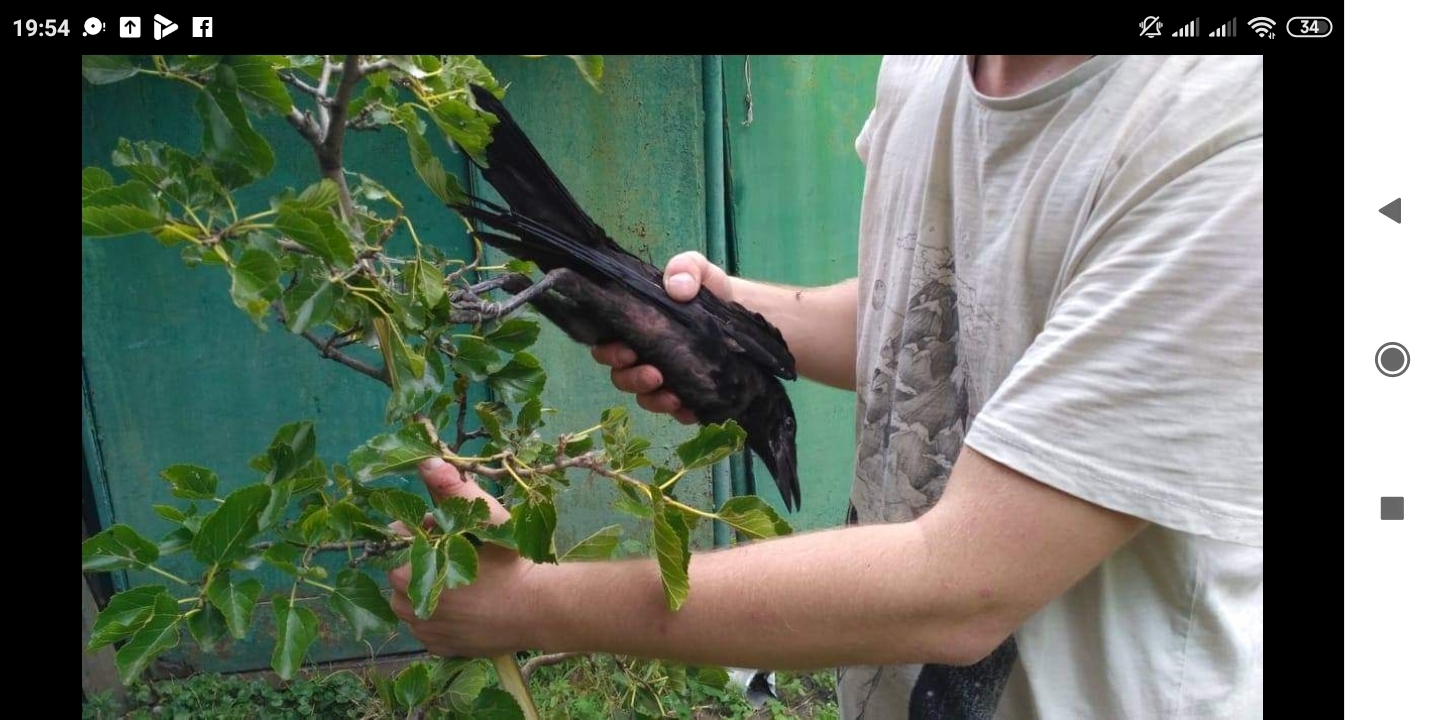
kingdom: Animalia
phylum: Chordata
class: Aves
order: Passeriformes
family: Corvidae
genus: Corvus
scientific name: Corvus frugilegus
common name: Rook
